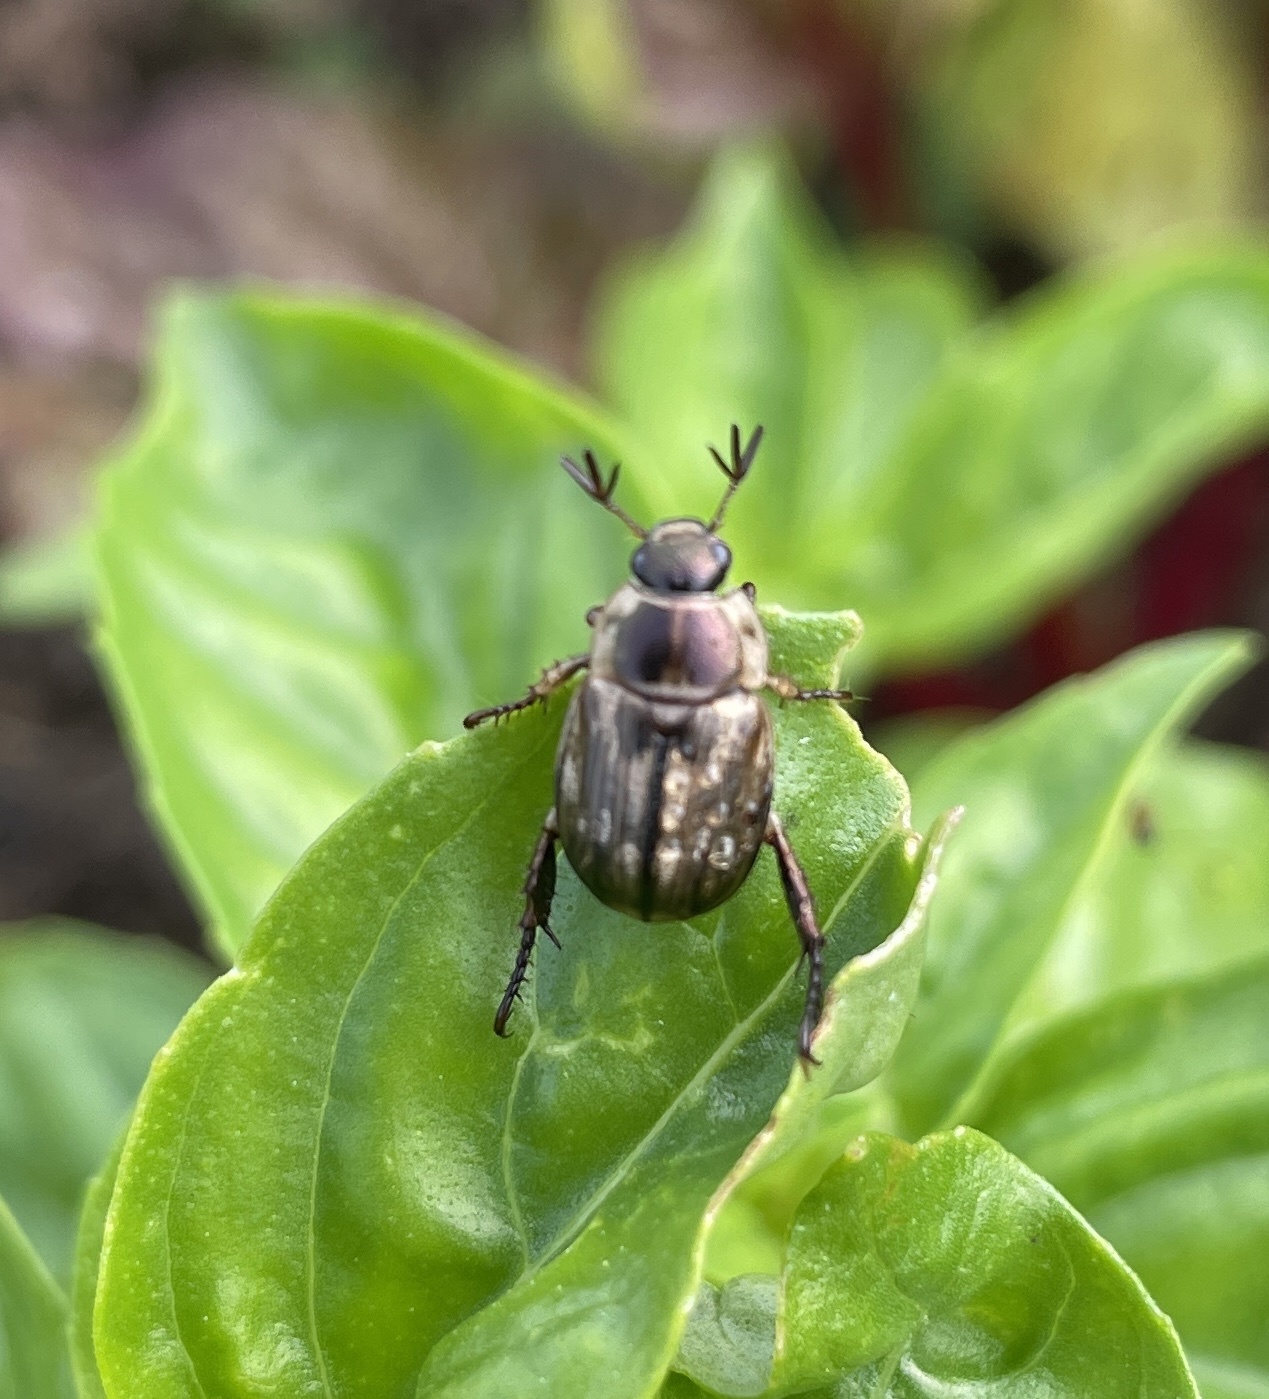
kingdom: Animalia
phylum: Arthropoda
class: Insecta
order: Coleoptera
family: Scarabaeidae
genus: Exomala
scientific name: Exomala orientalis
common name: Oriental beetle
